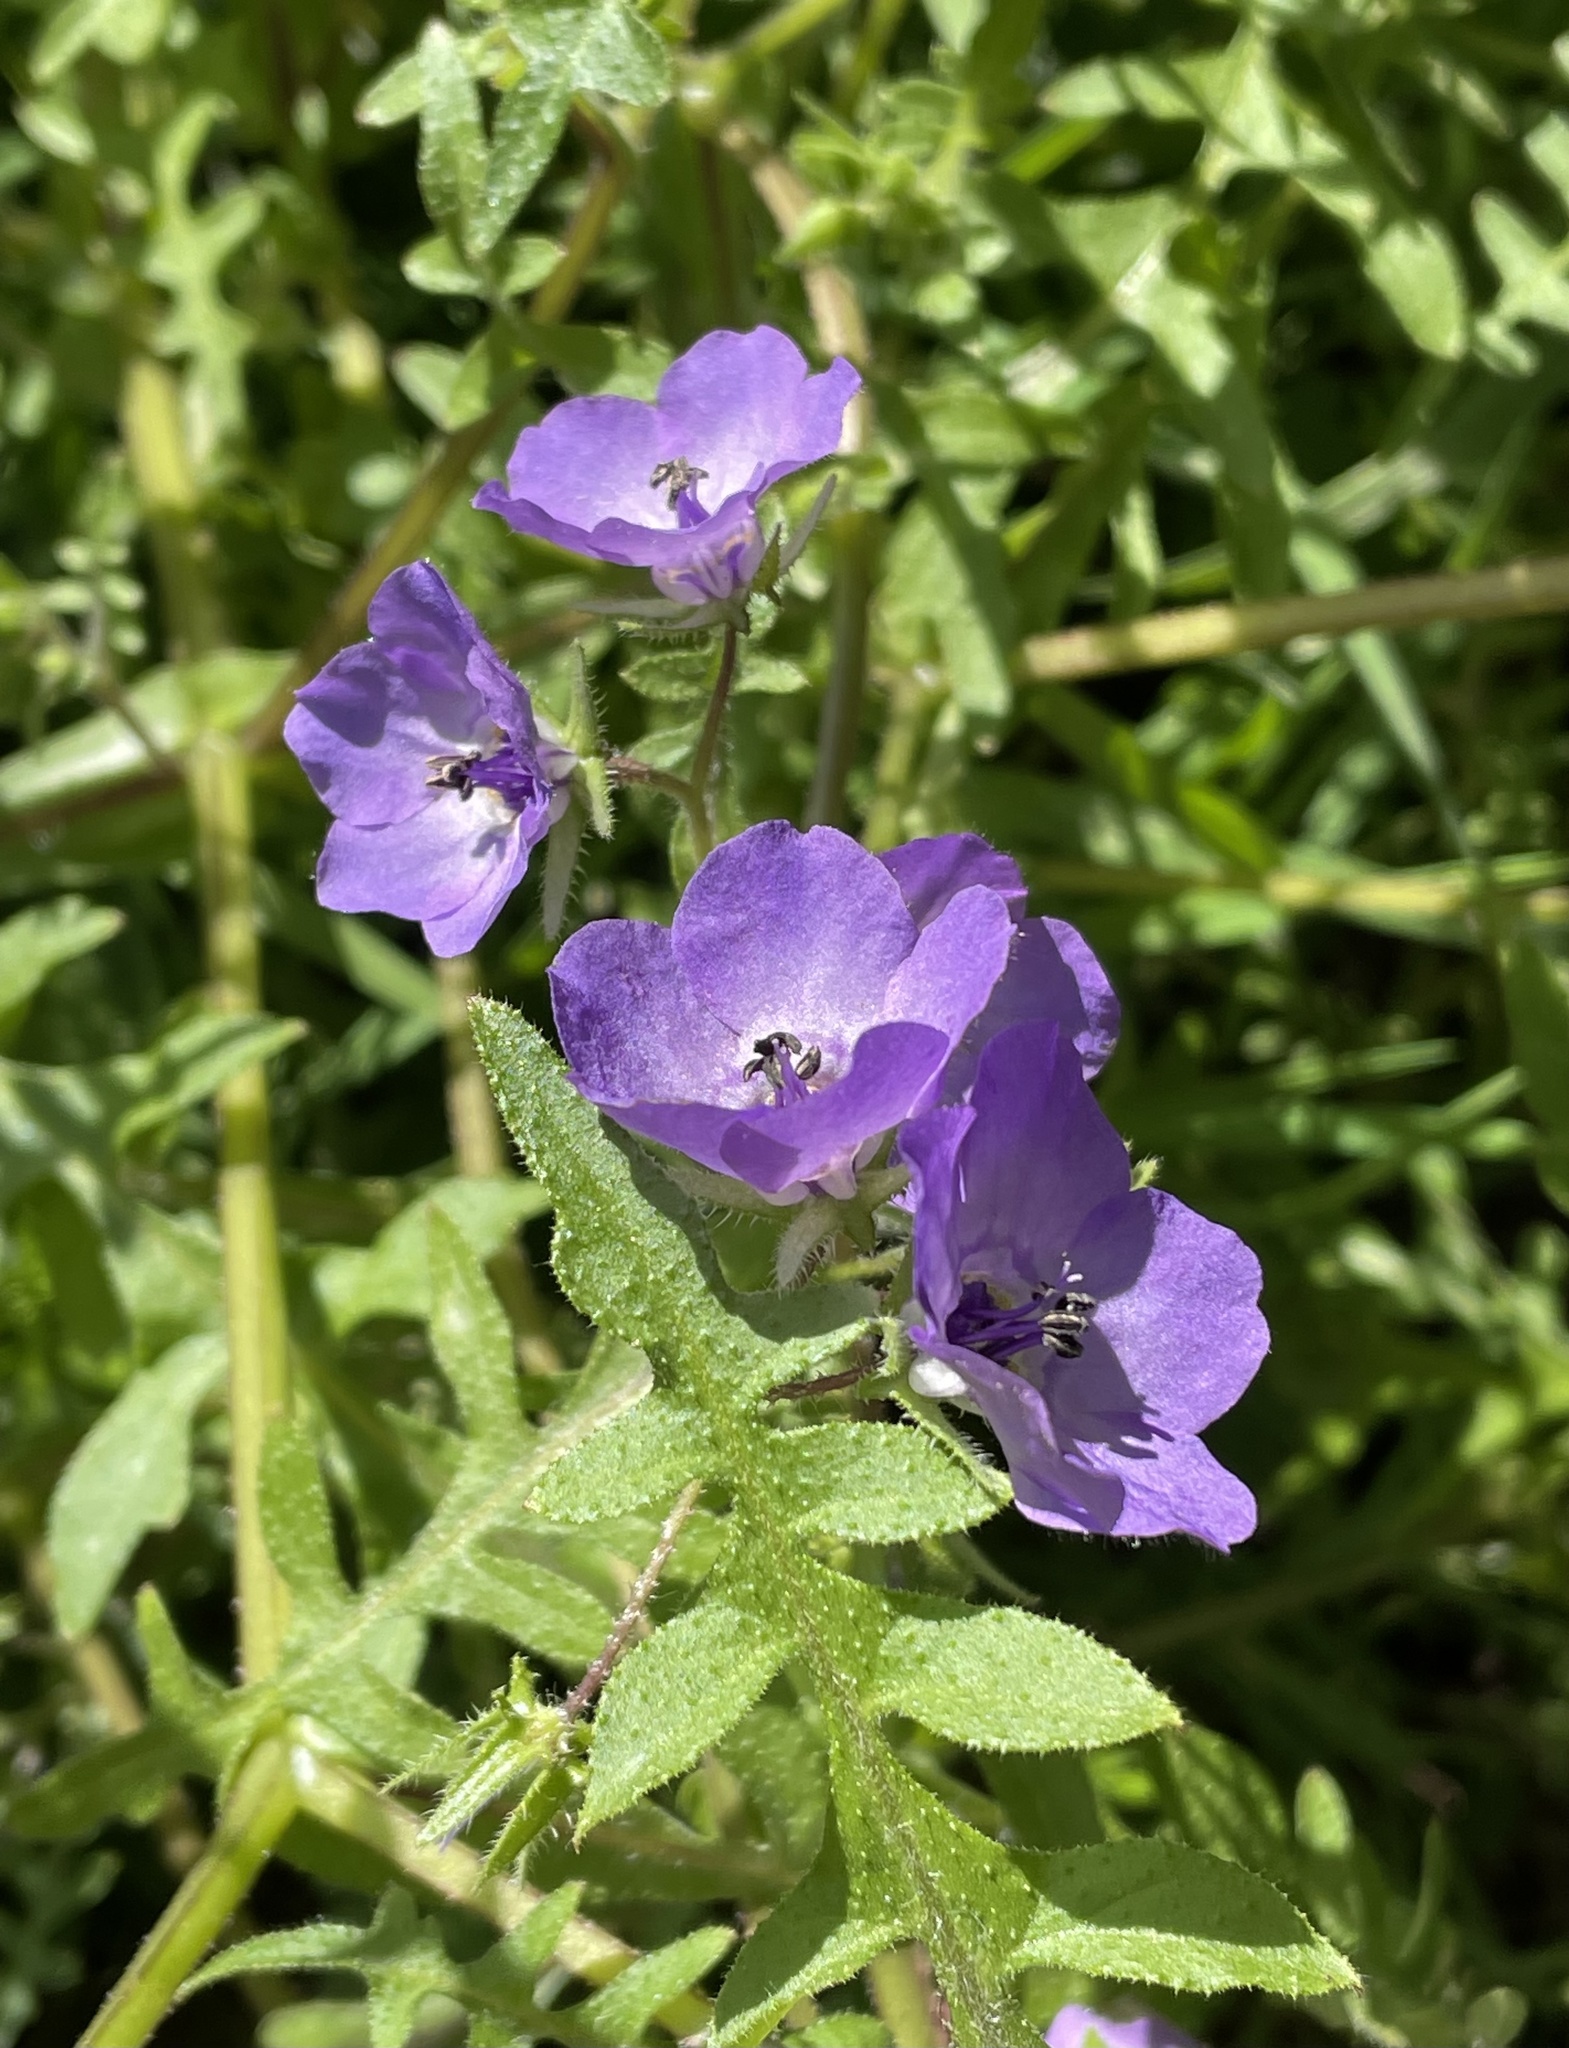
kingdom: Plantae
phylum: Tracheophyta
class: Magnoliopsida
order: Boraginales
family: Hydrophyllaceae
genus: Pholistoma
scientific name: Pholistoma auritum
